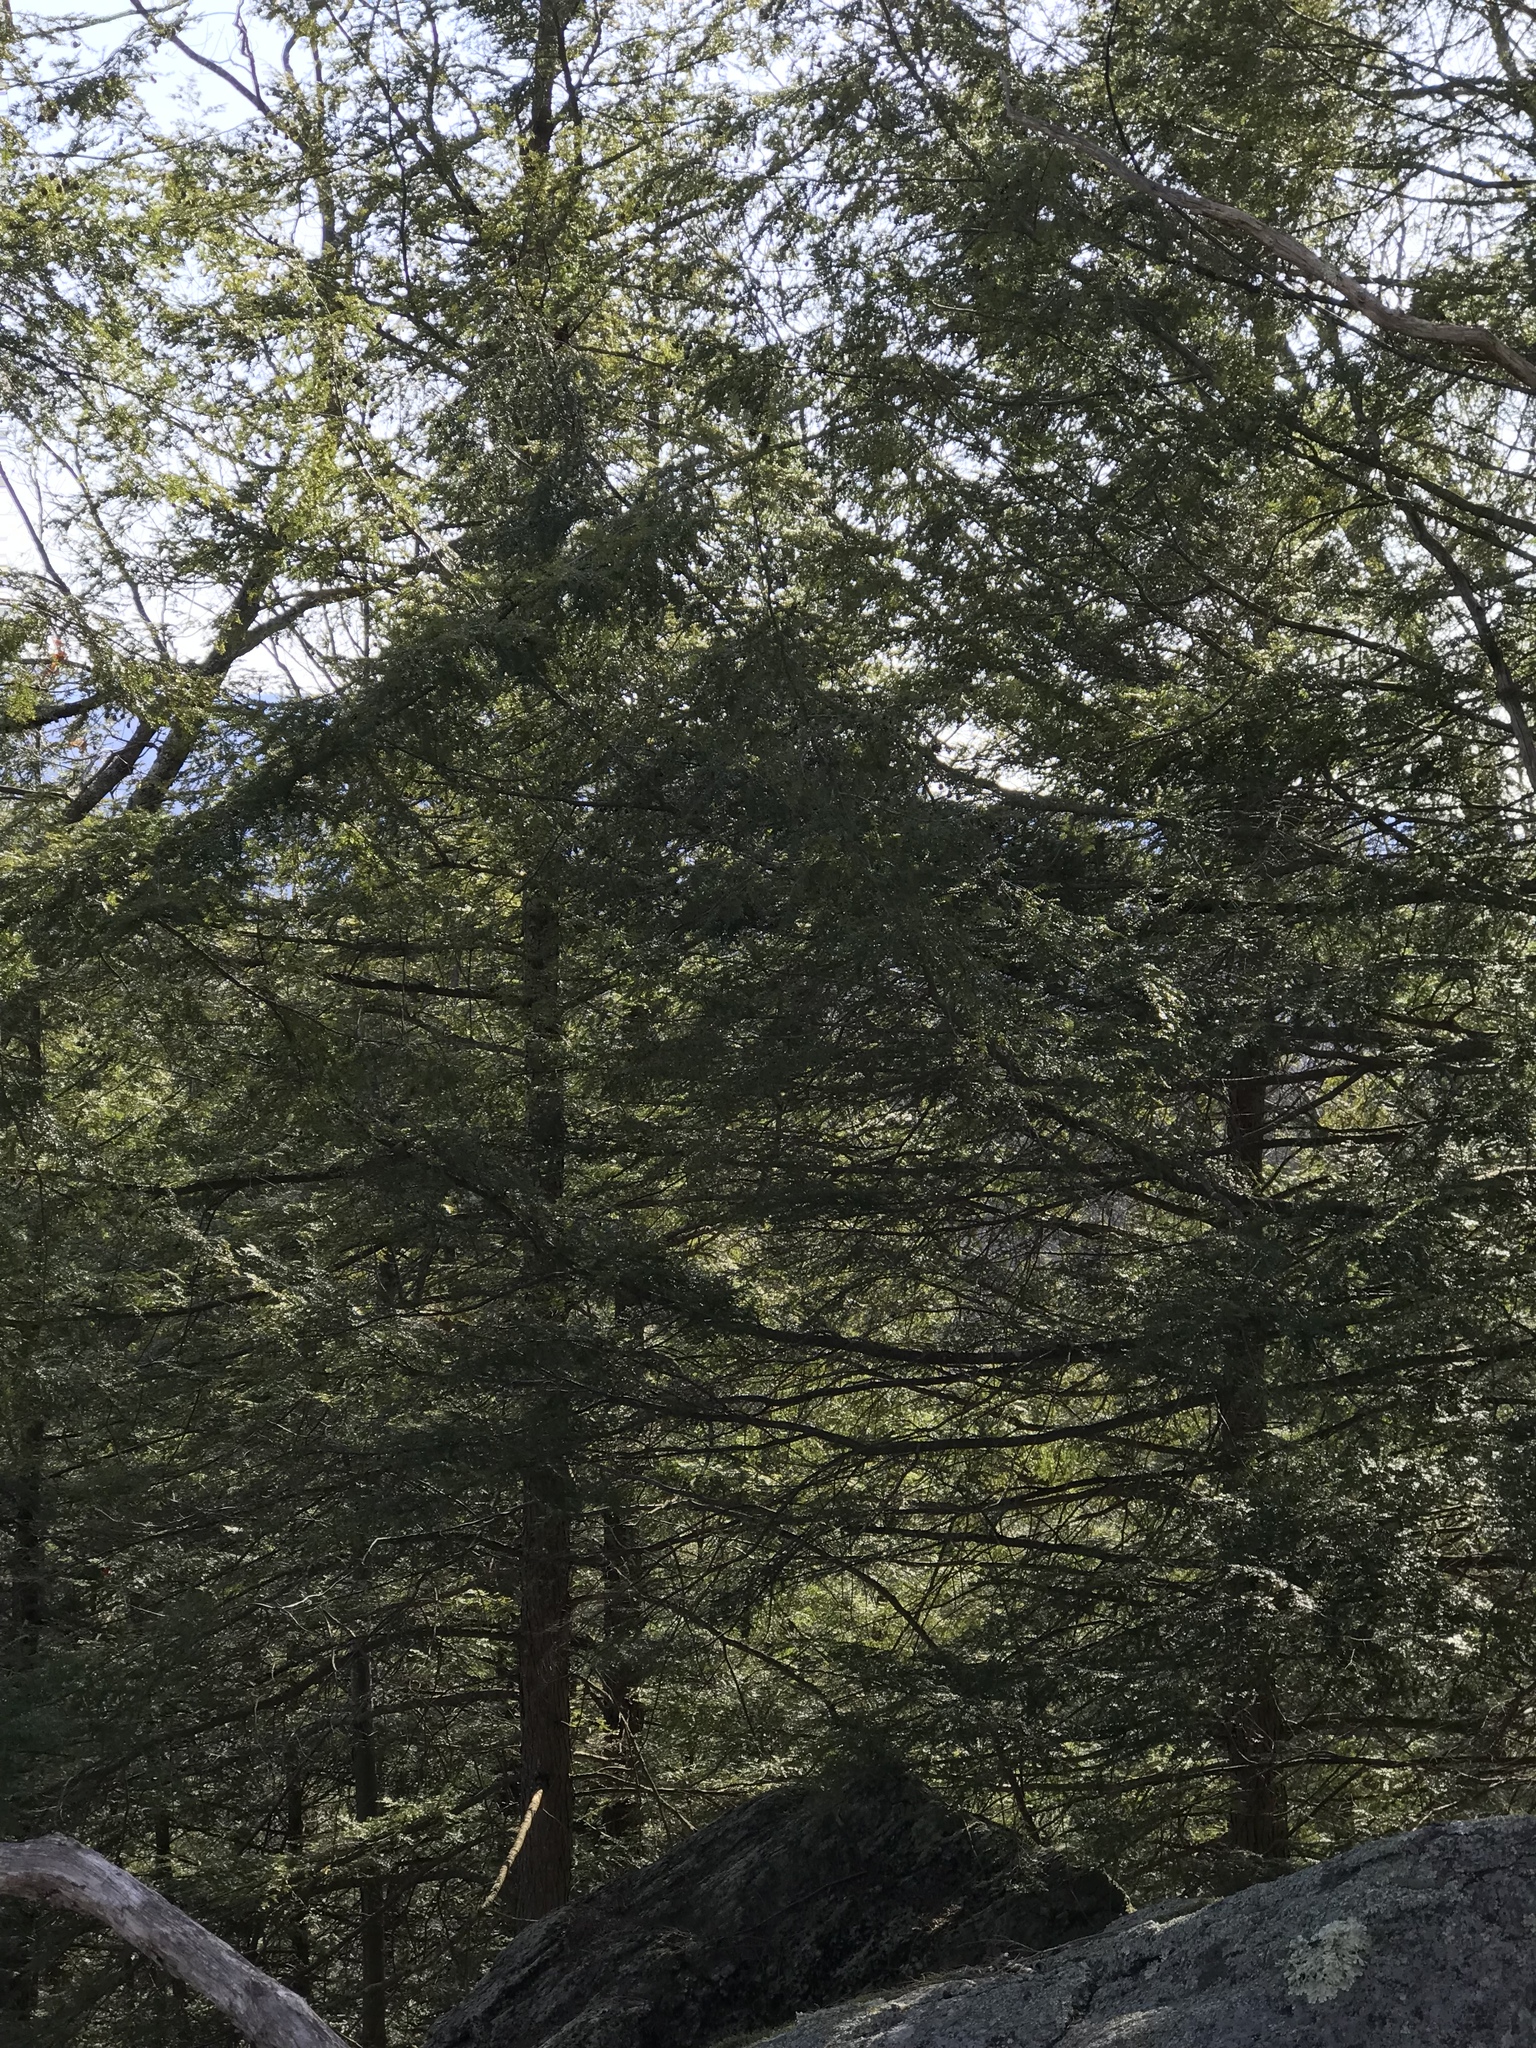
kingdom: Plantae
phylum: Tracheophyta
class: Pinopsida
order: Pinales
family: Pinaceae
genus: Tsuga
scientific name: Tsuga canadensis
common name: Eastern hemlock
